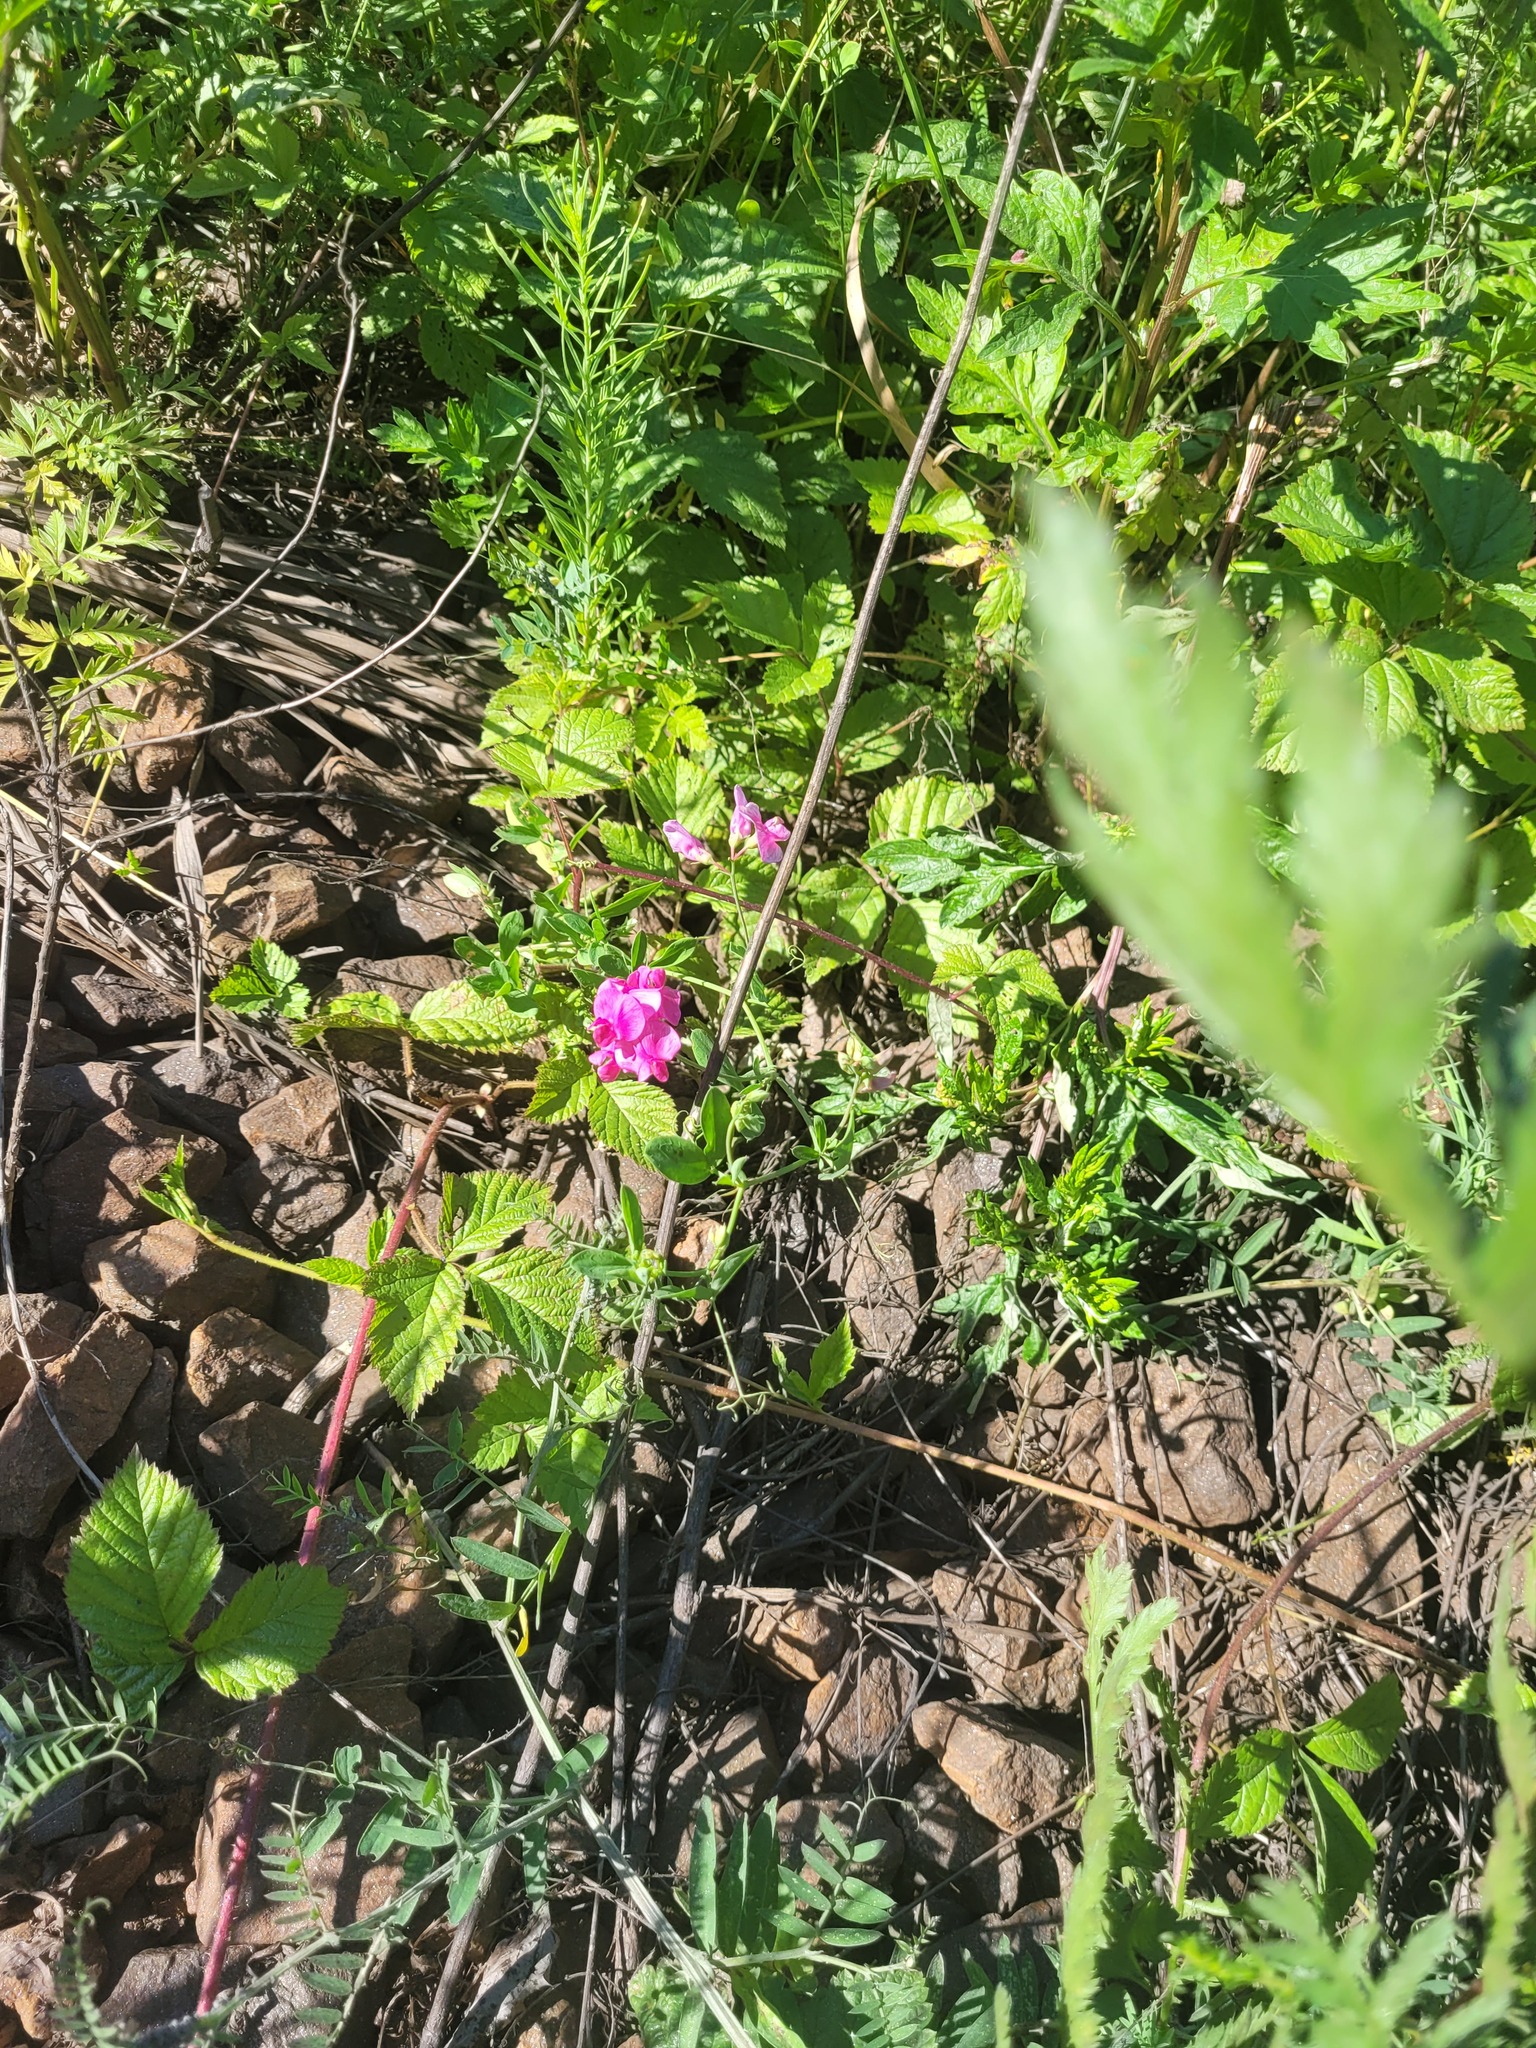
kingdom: Plantae
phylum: Tracheophyta
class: Magnoliopsida
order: Fabales
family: Fabaceae
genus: Lathyrus
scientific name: Lathyrus tuberosus
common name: Tuberous pea
